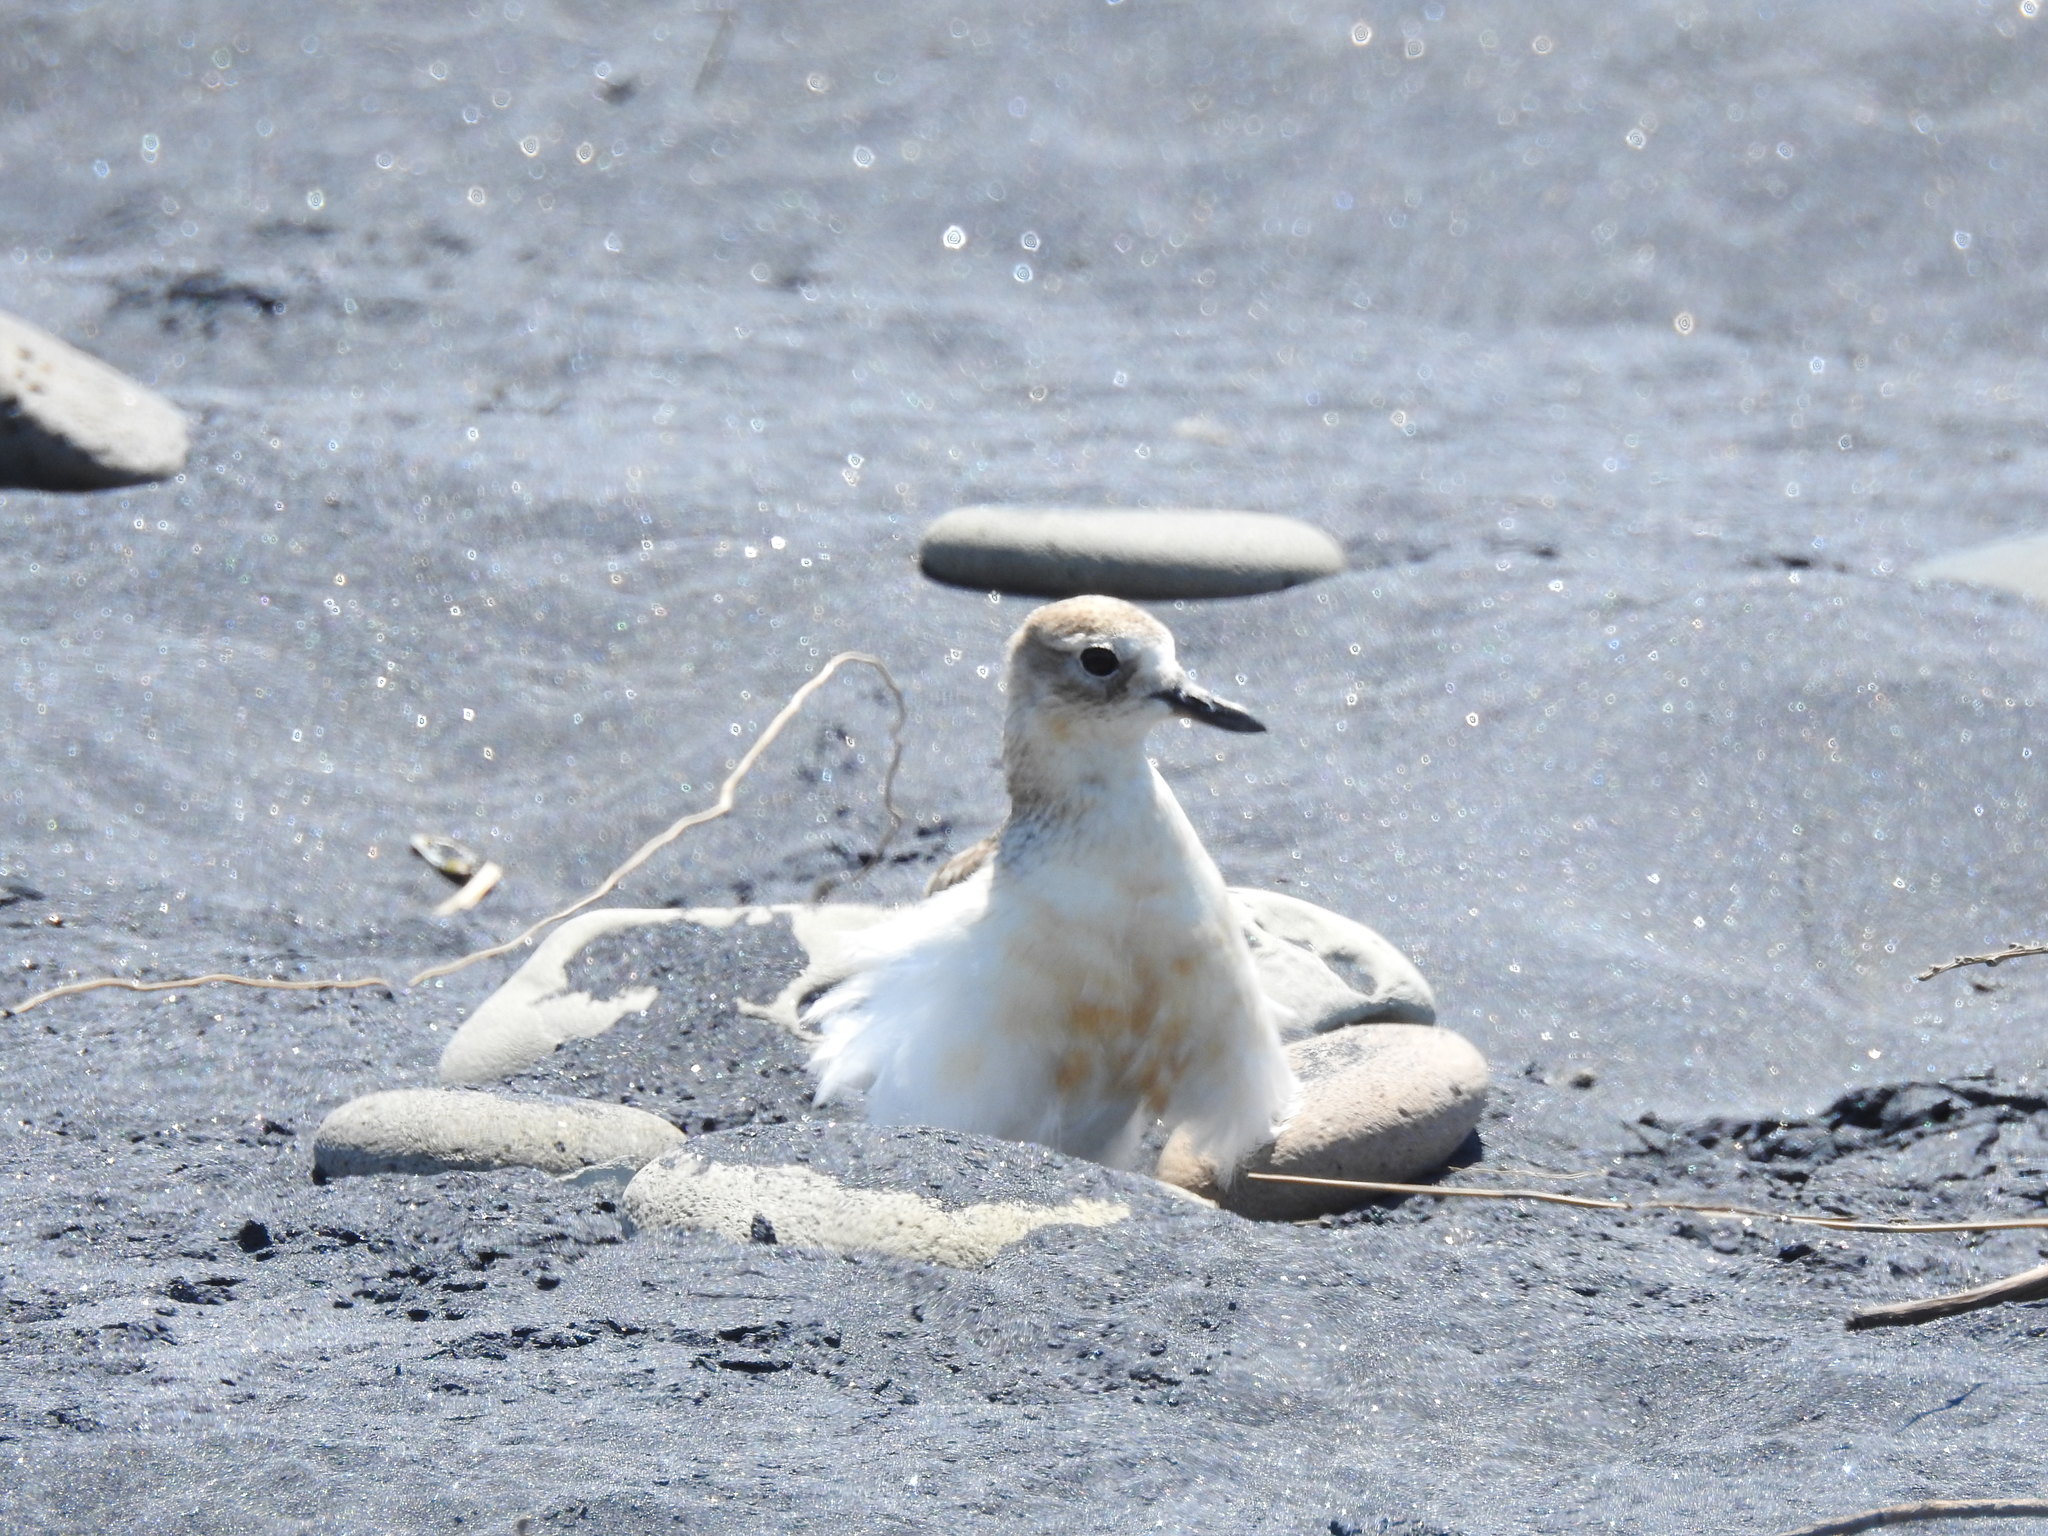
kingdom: Animalia
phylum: Chordata
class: Aves
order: Charadriiformes
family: Charadriidae
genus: Anarhynchus
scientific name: Anarhynchus
